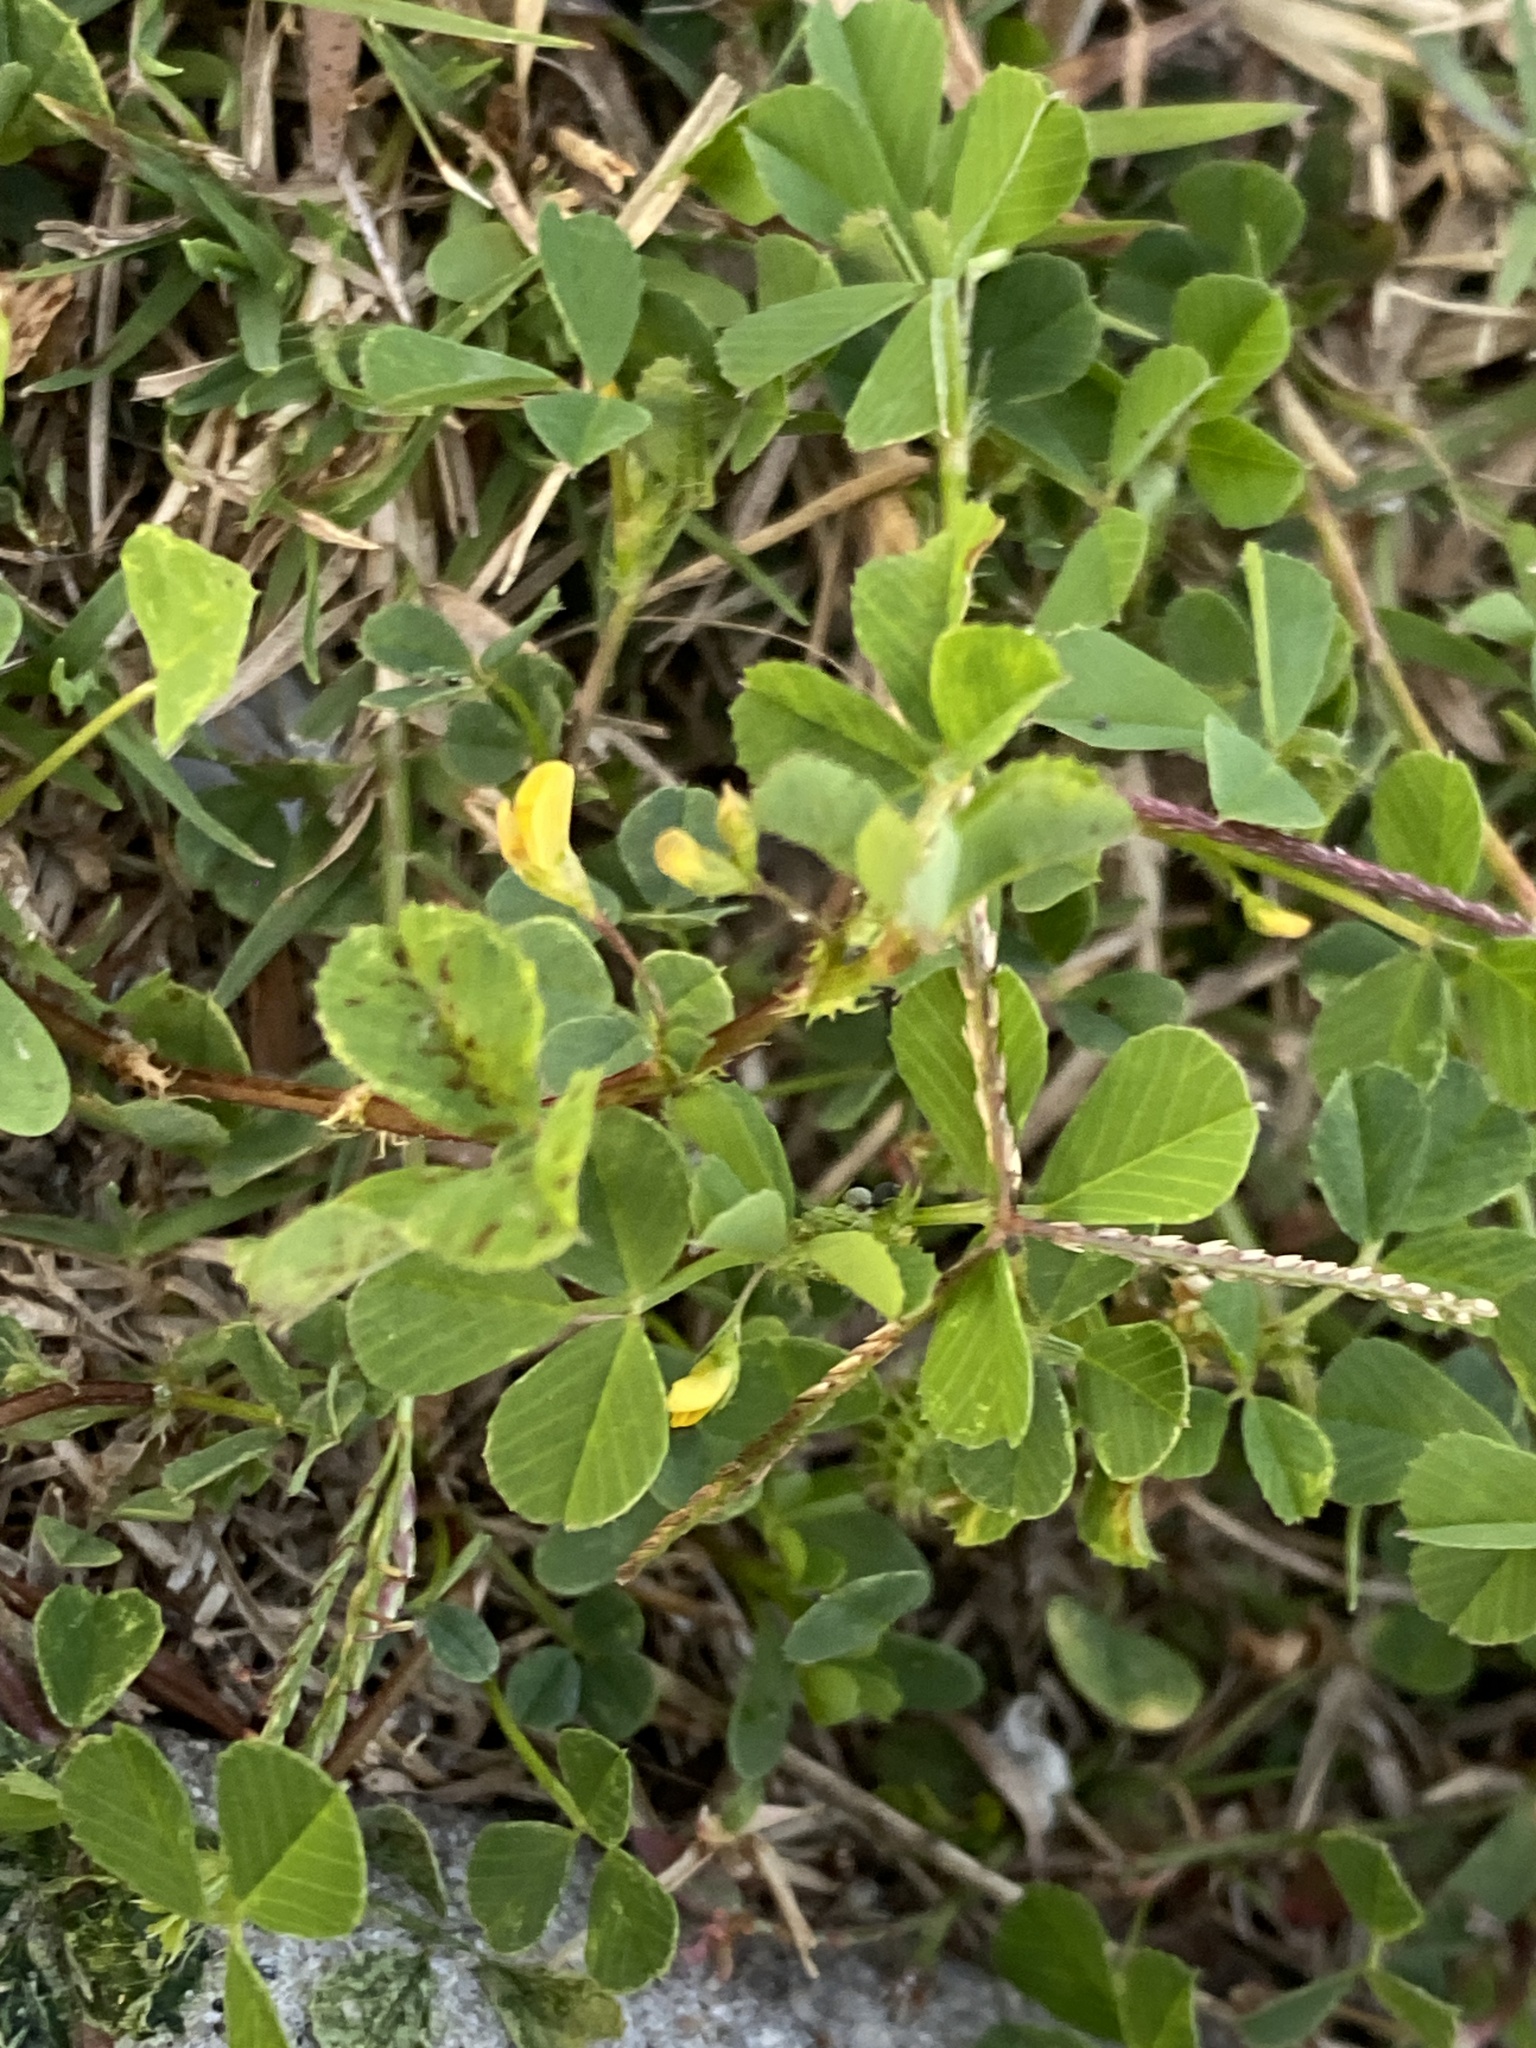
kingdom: Plantae
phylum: Tracheophyta
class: Magnoliopsida
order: Fabales
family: Fabaceae
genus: Medicago
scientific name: Medicago polymorpha
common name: Burclover
